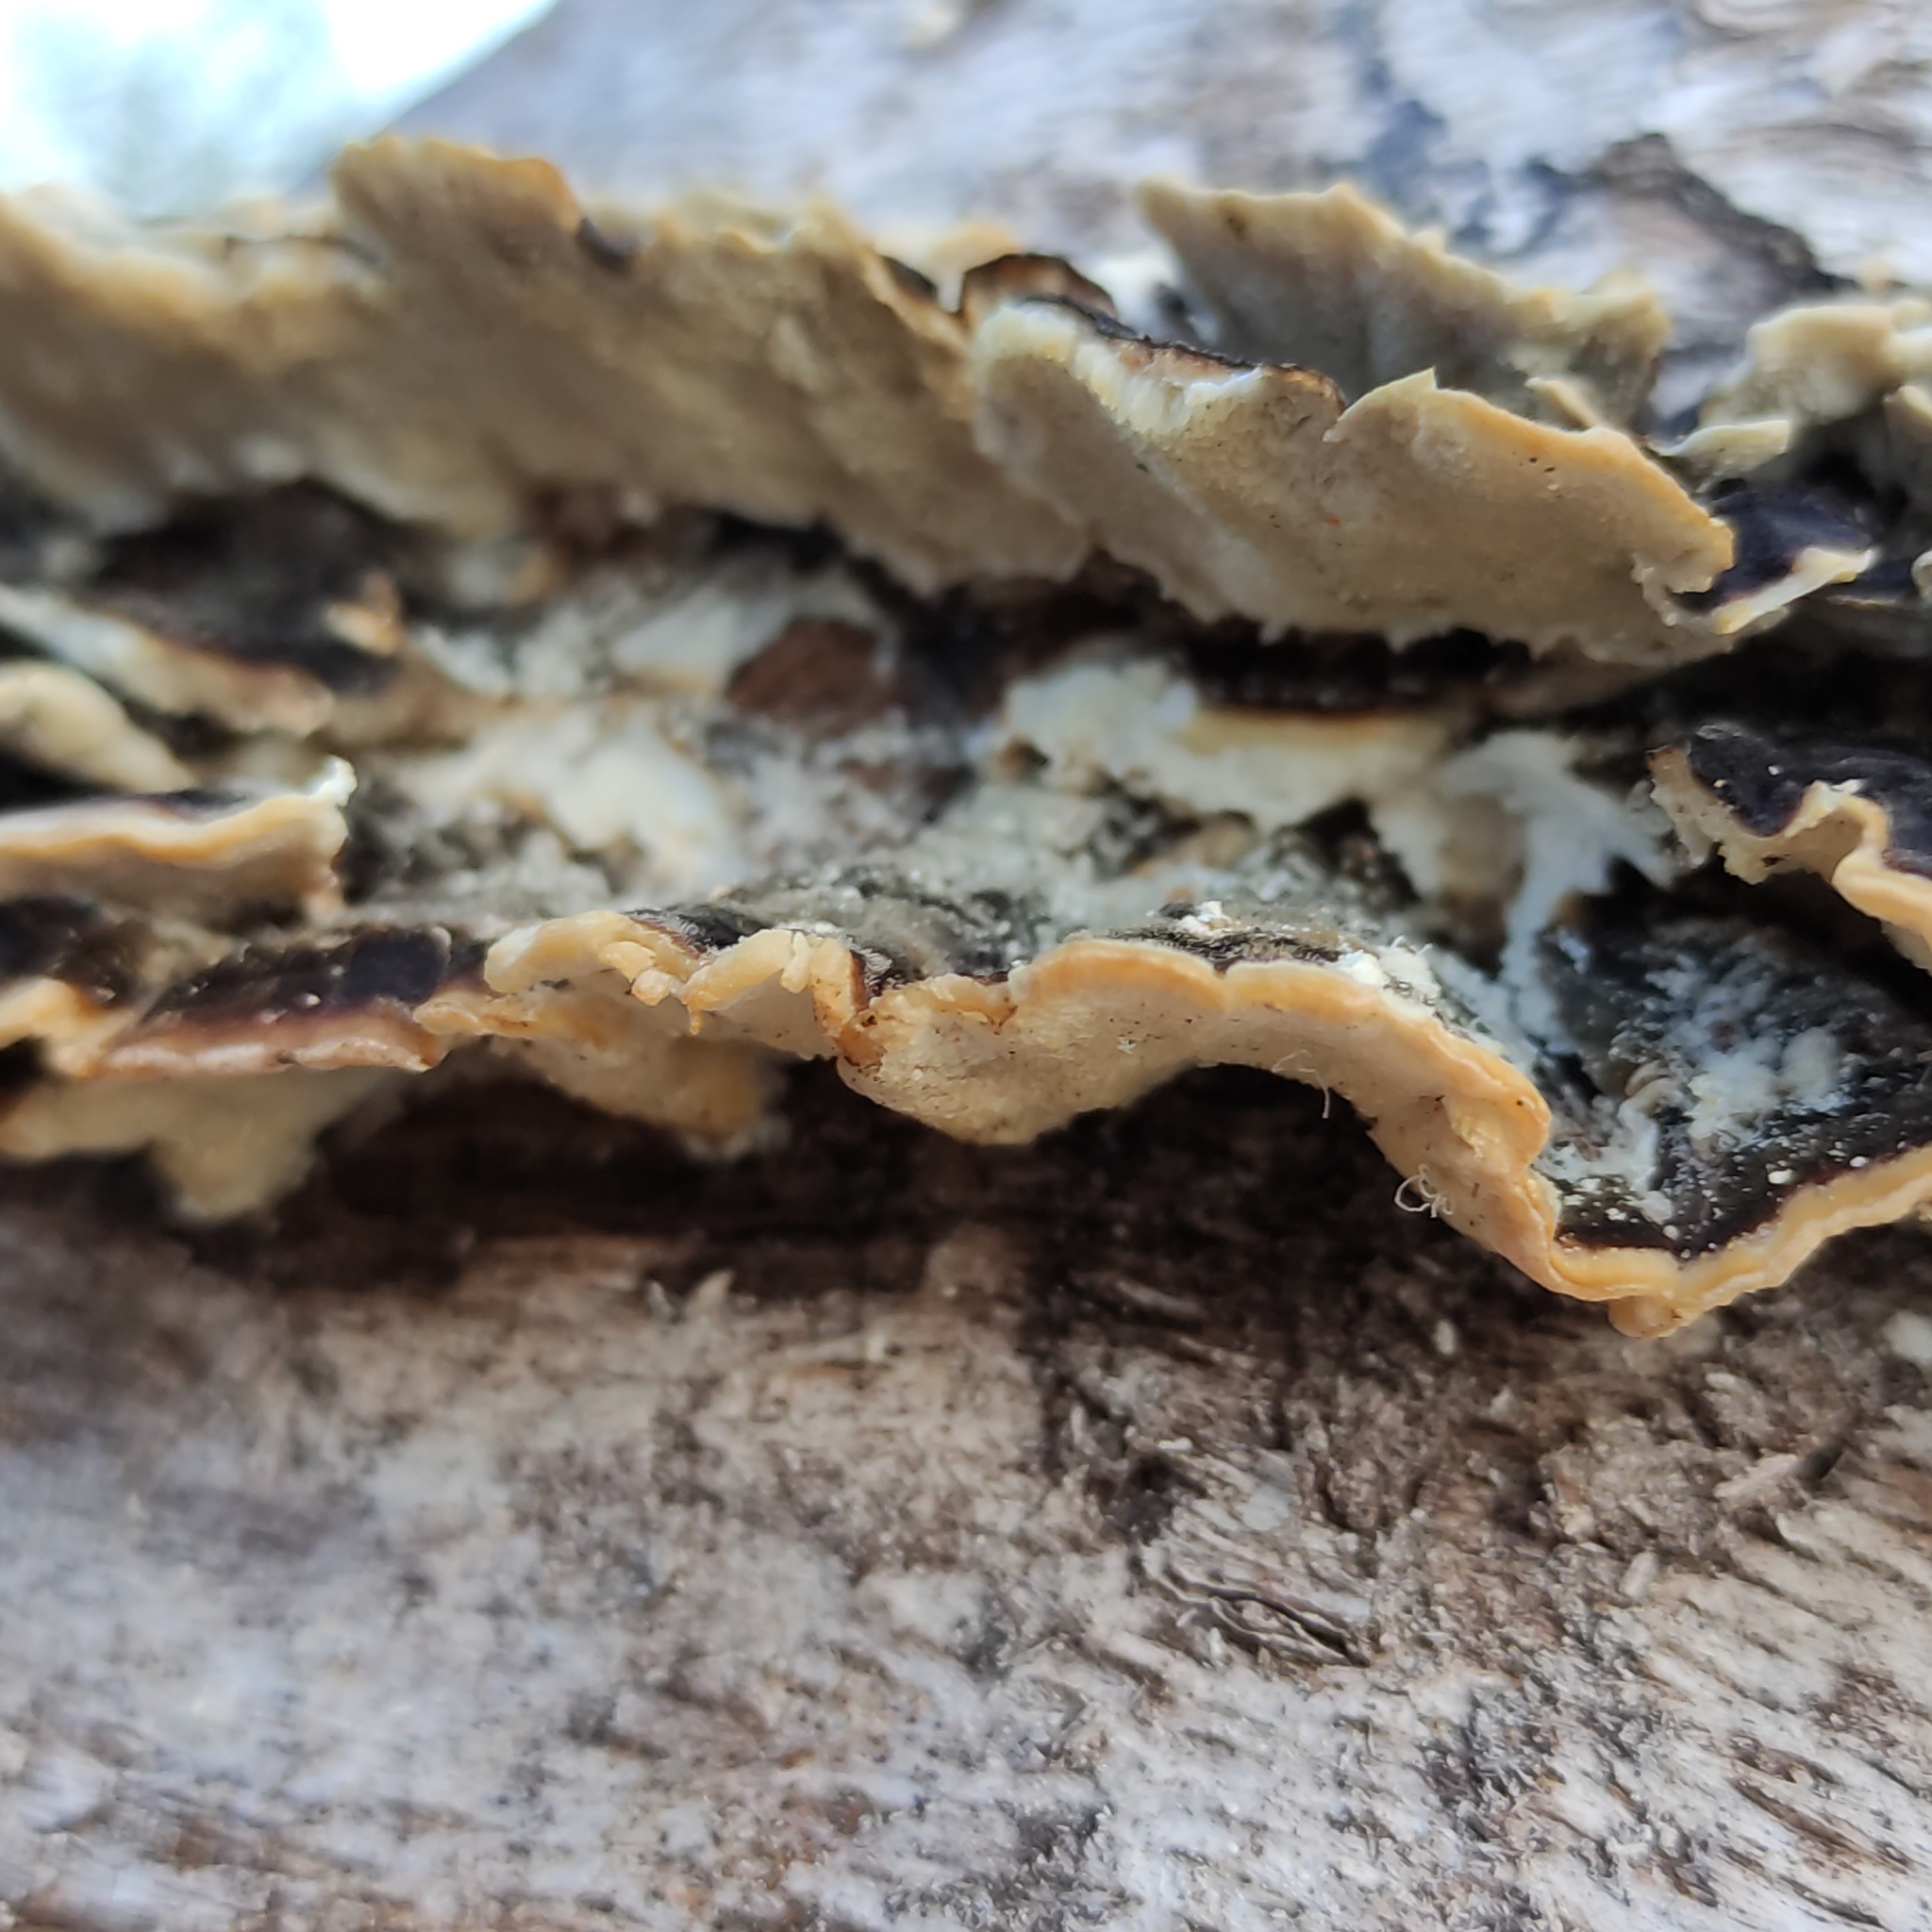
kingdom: Fungi
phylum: Basidiomycota
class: Agaricomycetes
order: Polyporales
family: Polyporaceae
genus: Trametes
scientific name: Trametes versicolor
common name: Turkeytail
